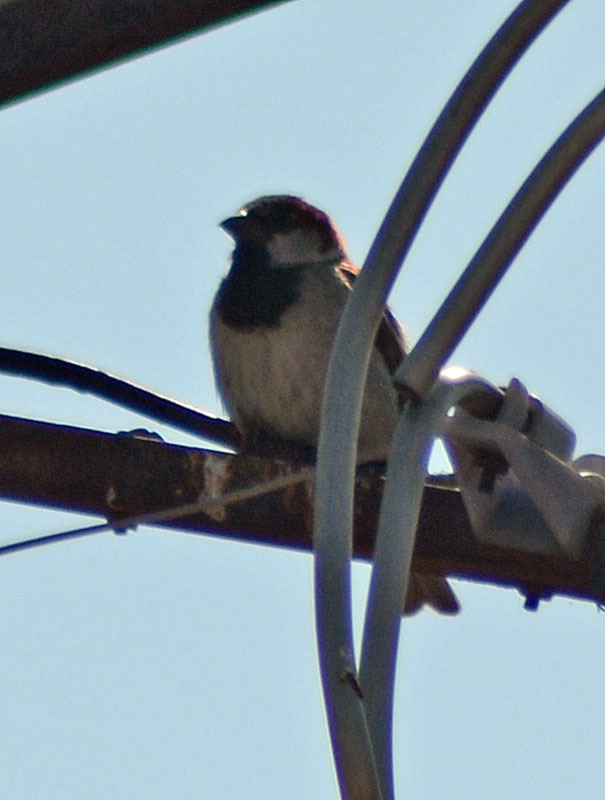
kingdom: Animalia
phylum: Chordata
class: Aves
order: Passeriformes
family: Passeridae
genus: Passer
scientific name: Passer domesticus
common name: House sparrow
